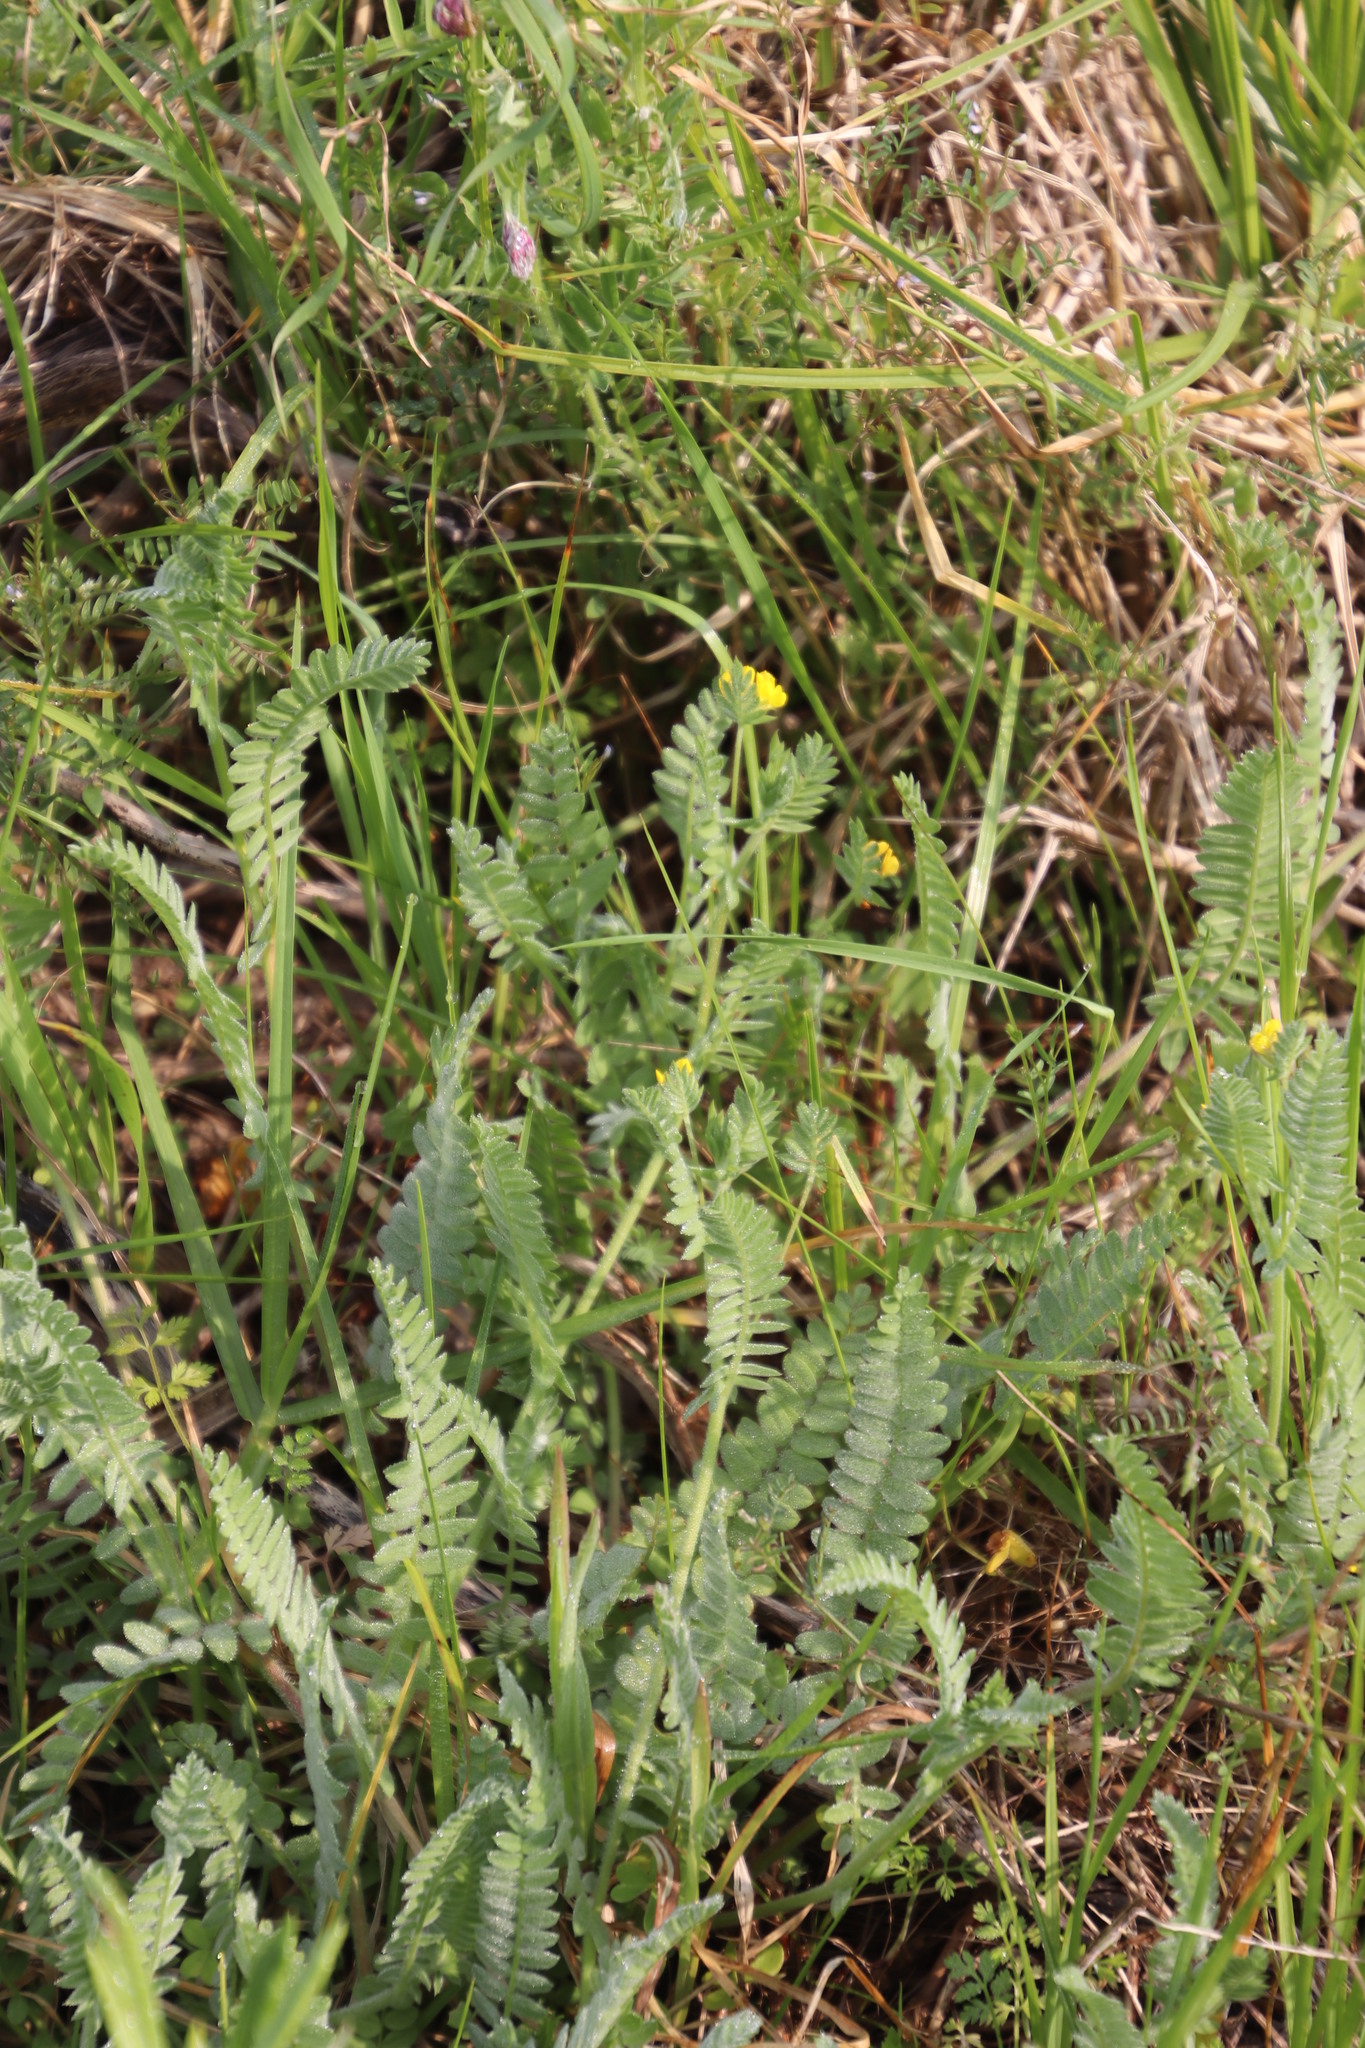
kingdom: Plantae
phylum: Tracheophyta
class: Magnoliopsida
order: Fabales
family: Fabaceae
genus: Ornithopus
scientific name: Ornithopus compressus
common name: Yellow serradella
